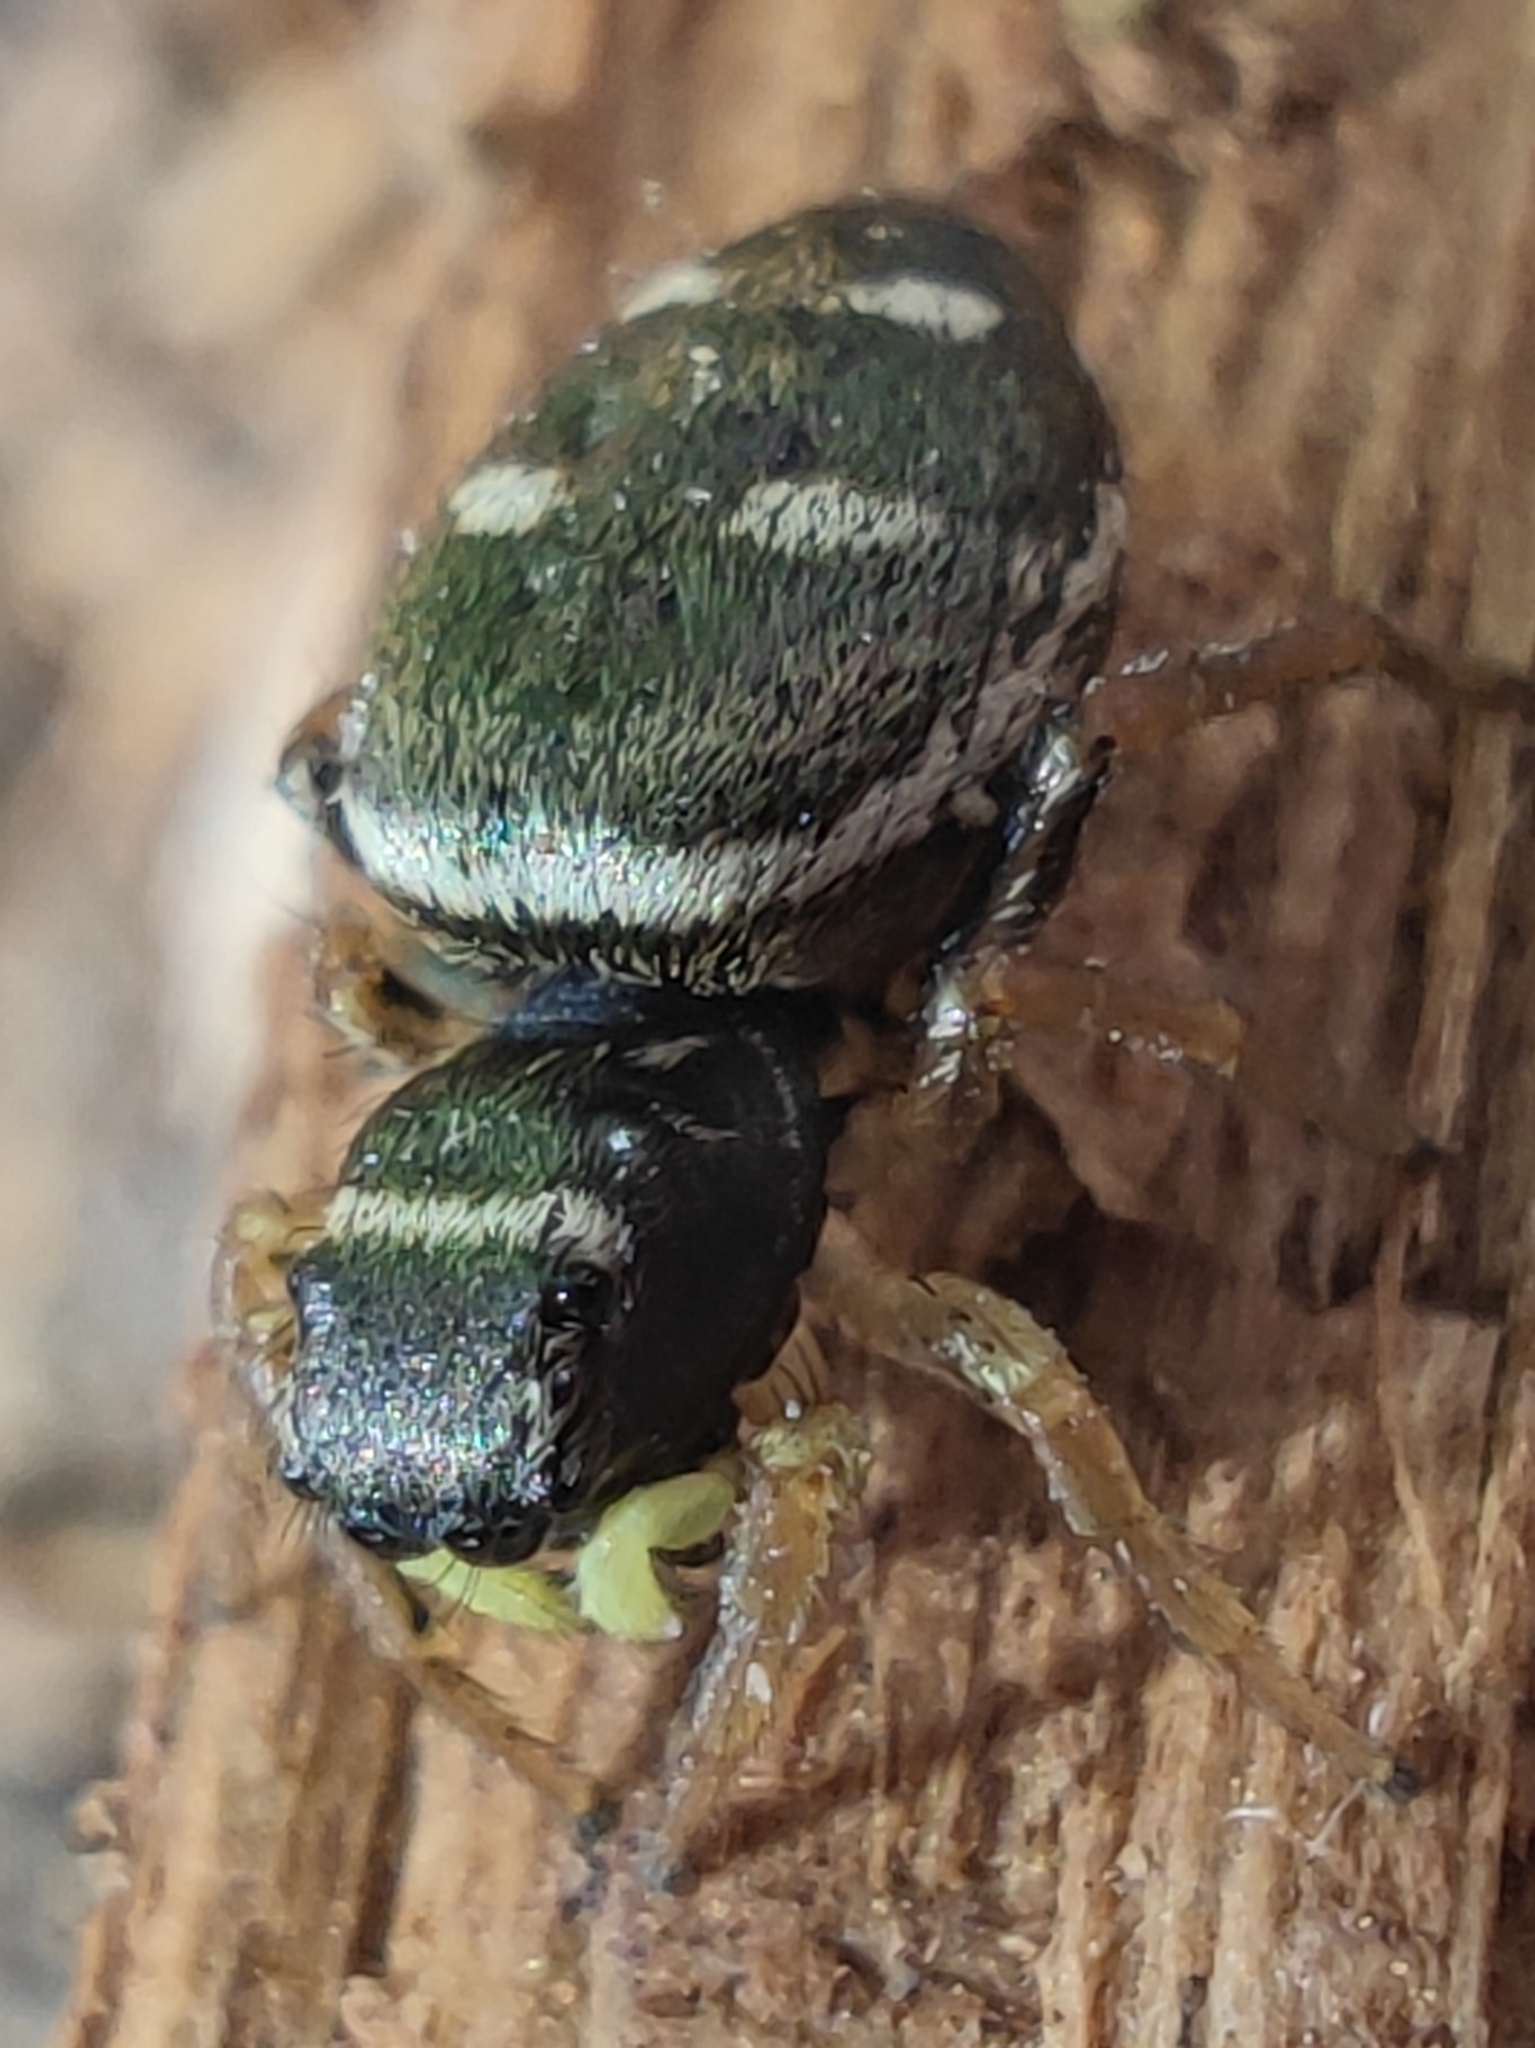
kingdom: Animalia
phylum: Arthropoda
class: Arachnida
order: Araneae
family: Salticidae
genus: Heliophanus
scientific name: Heliophanus cupreus
